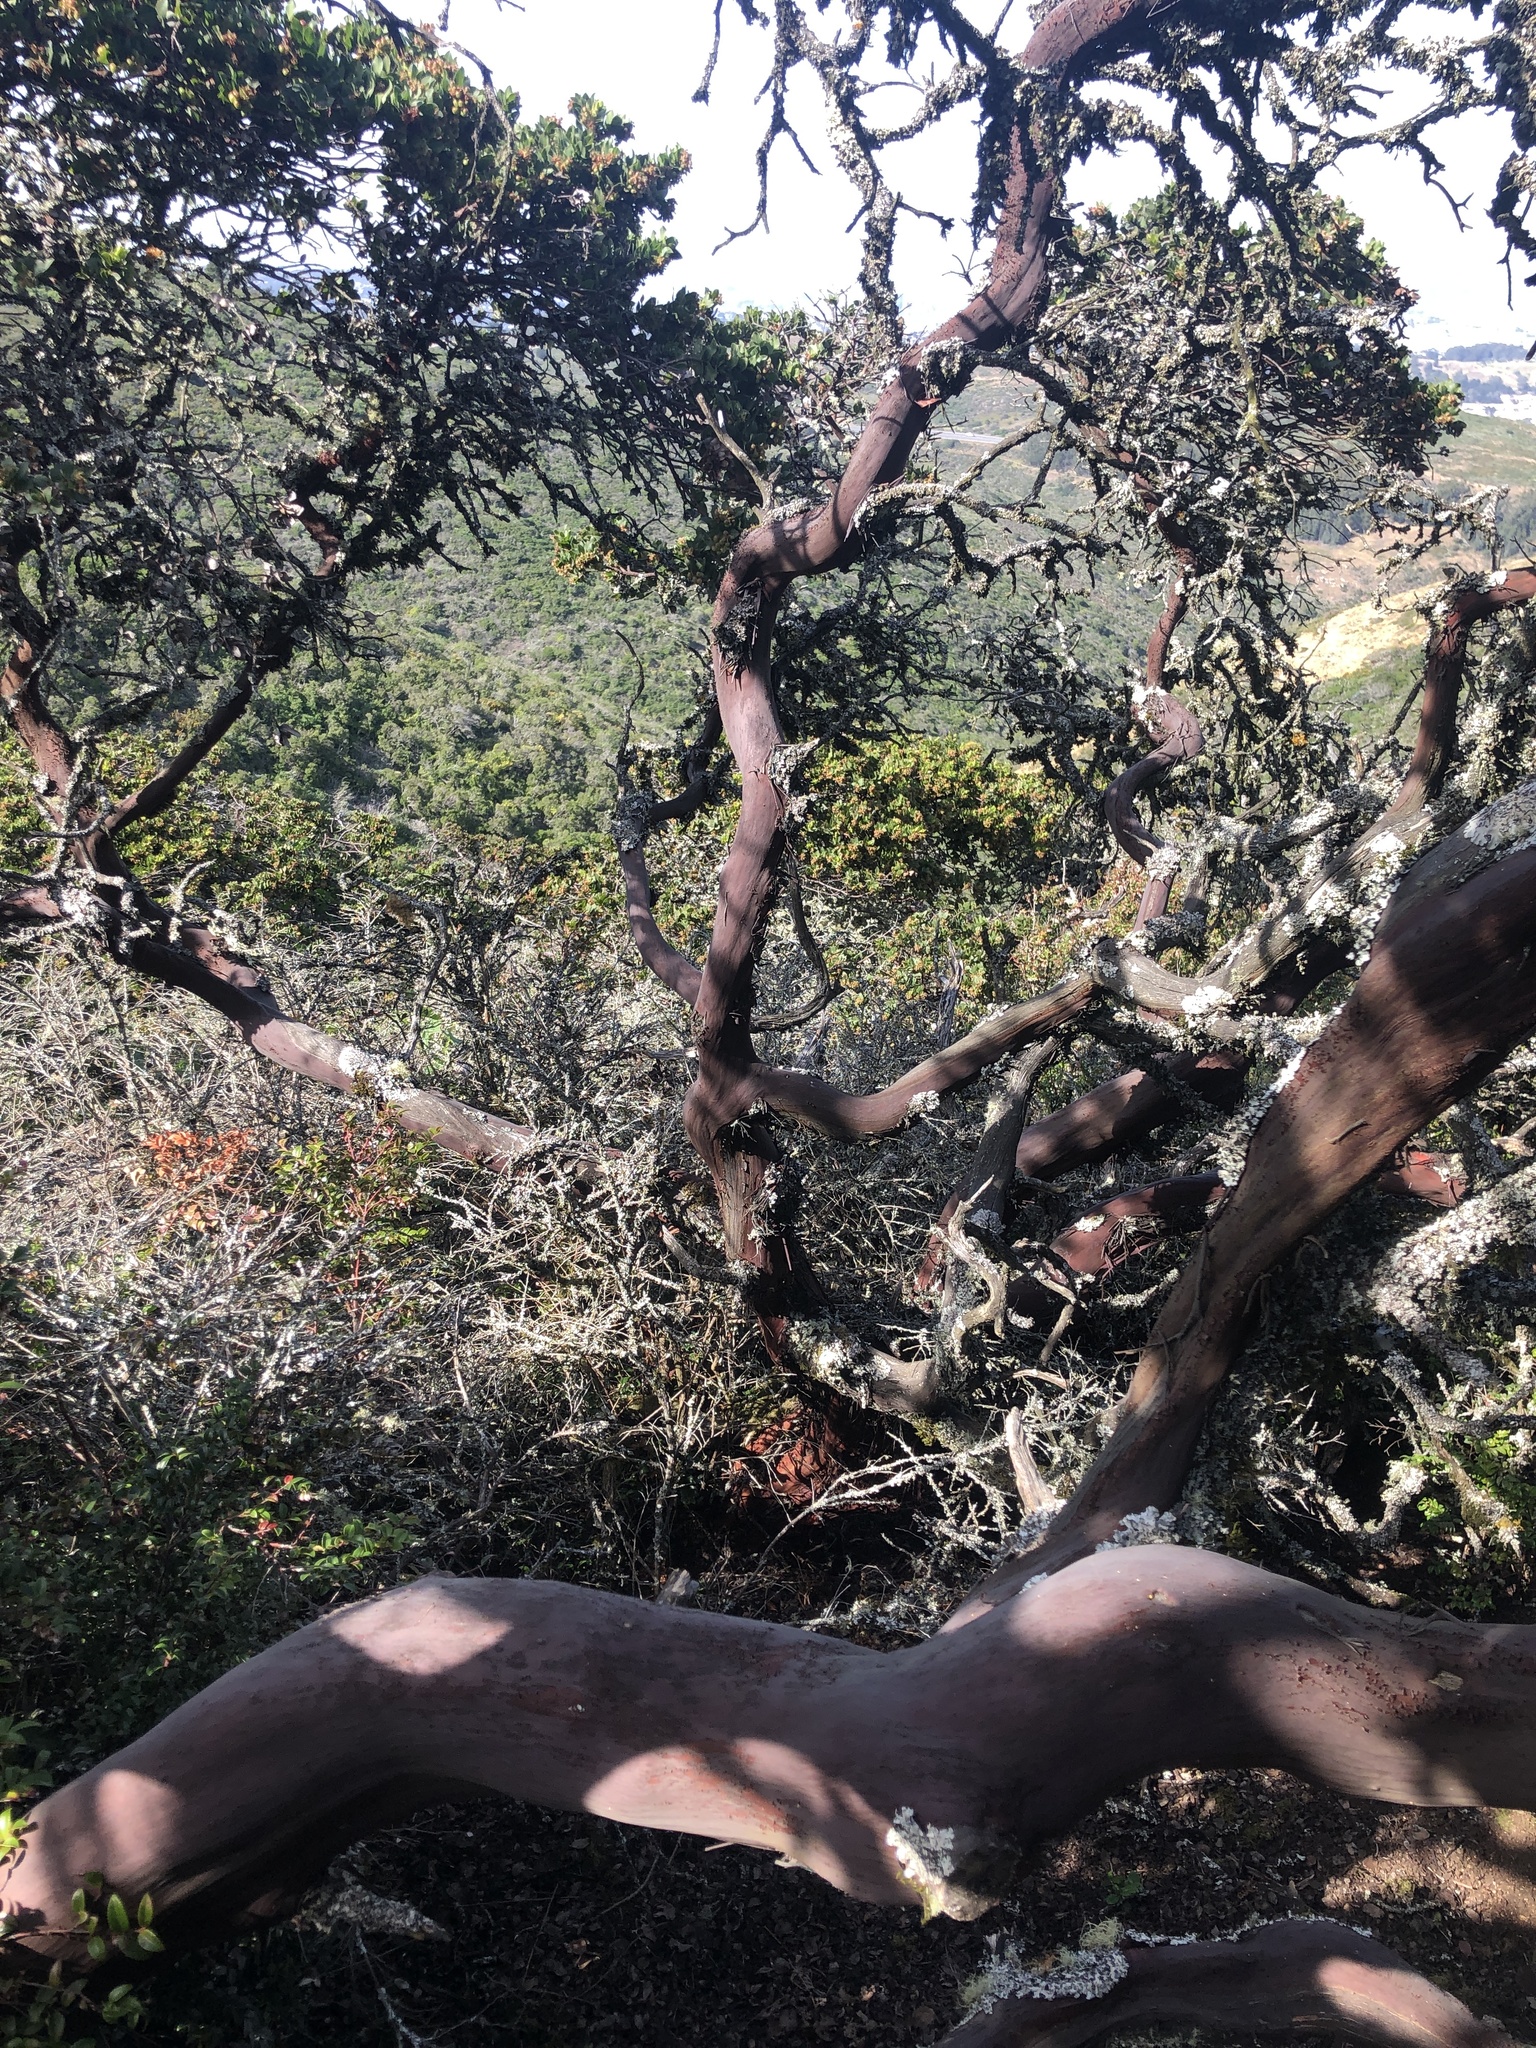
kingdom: Plantae
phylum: Tracheophyta
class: Magnoliopsida
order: Ericales
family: Ericaceae
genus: Arctostaphylos
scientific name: Arctostaphylos montaraensis
